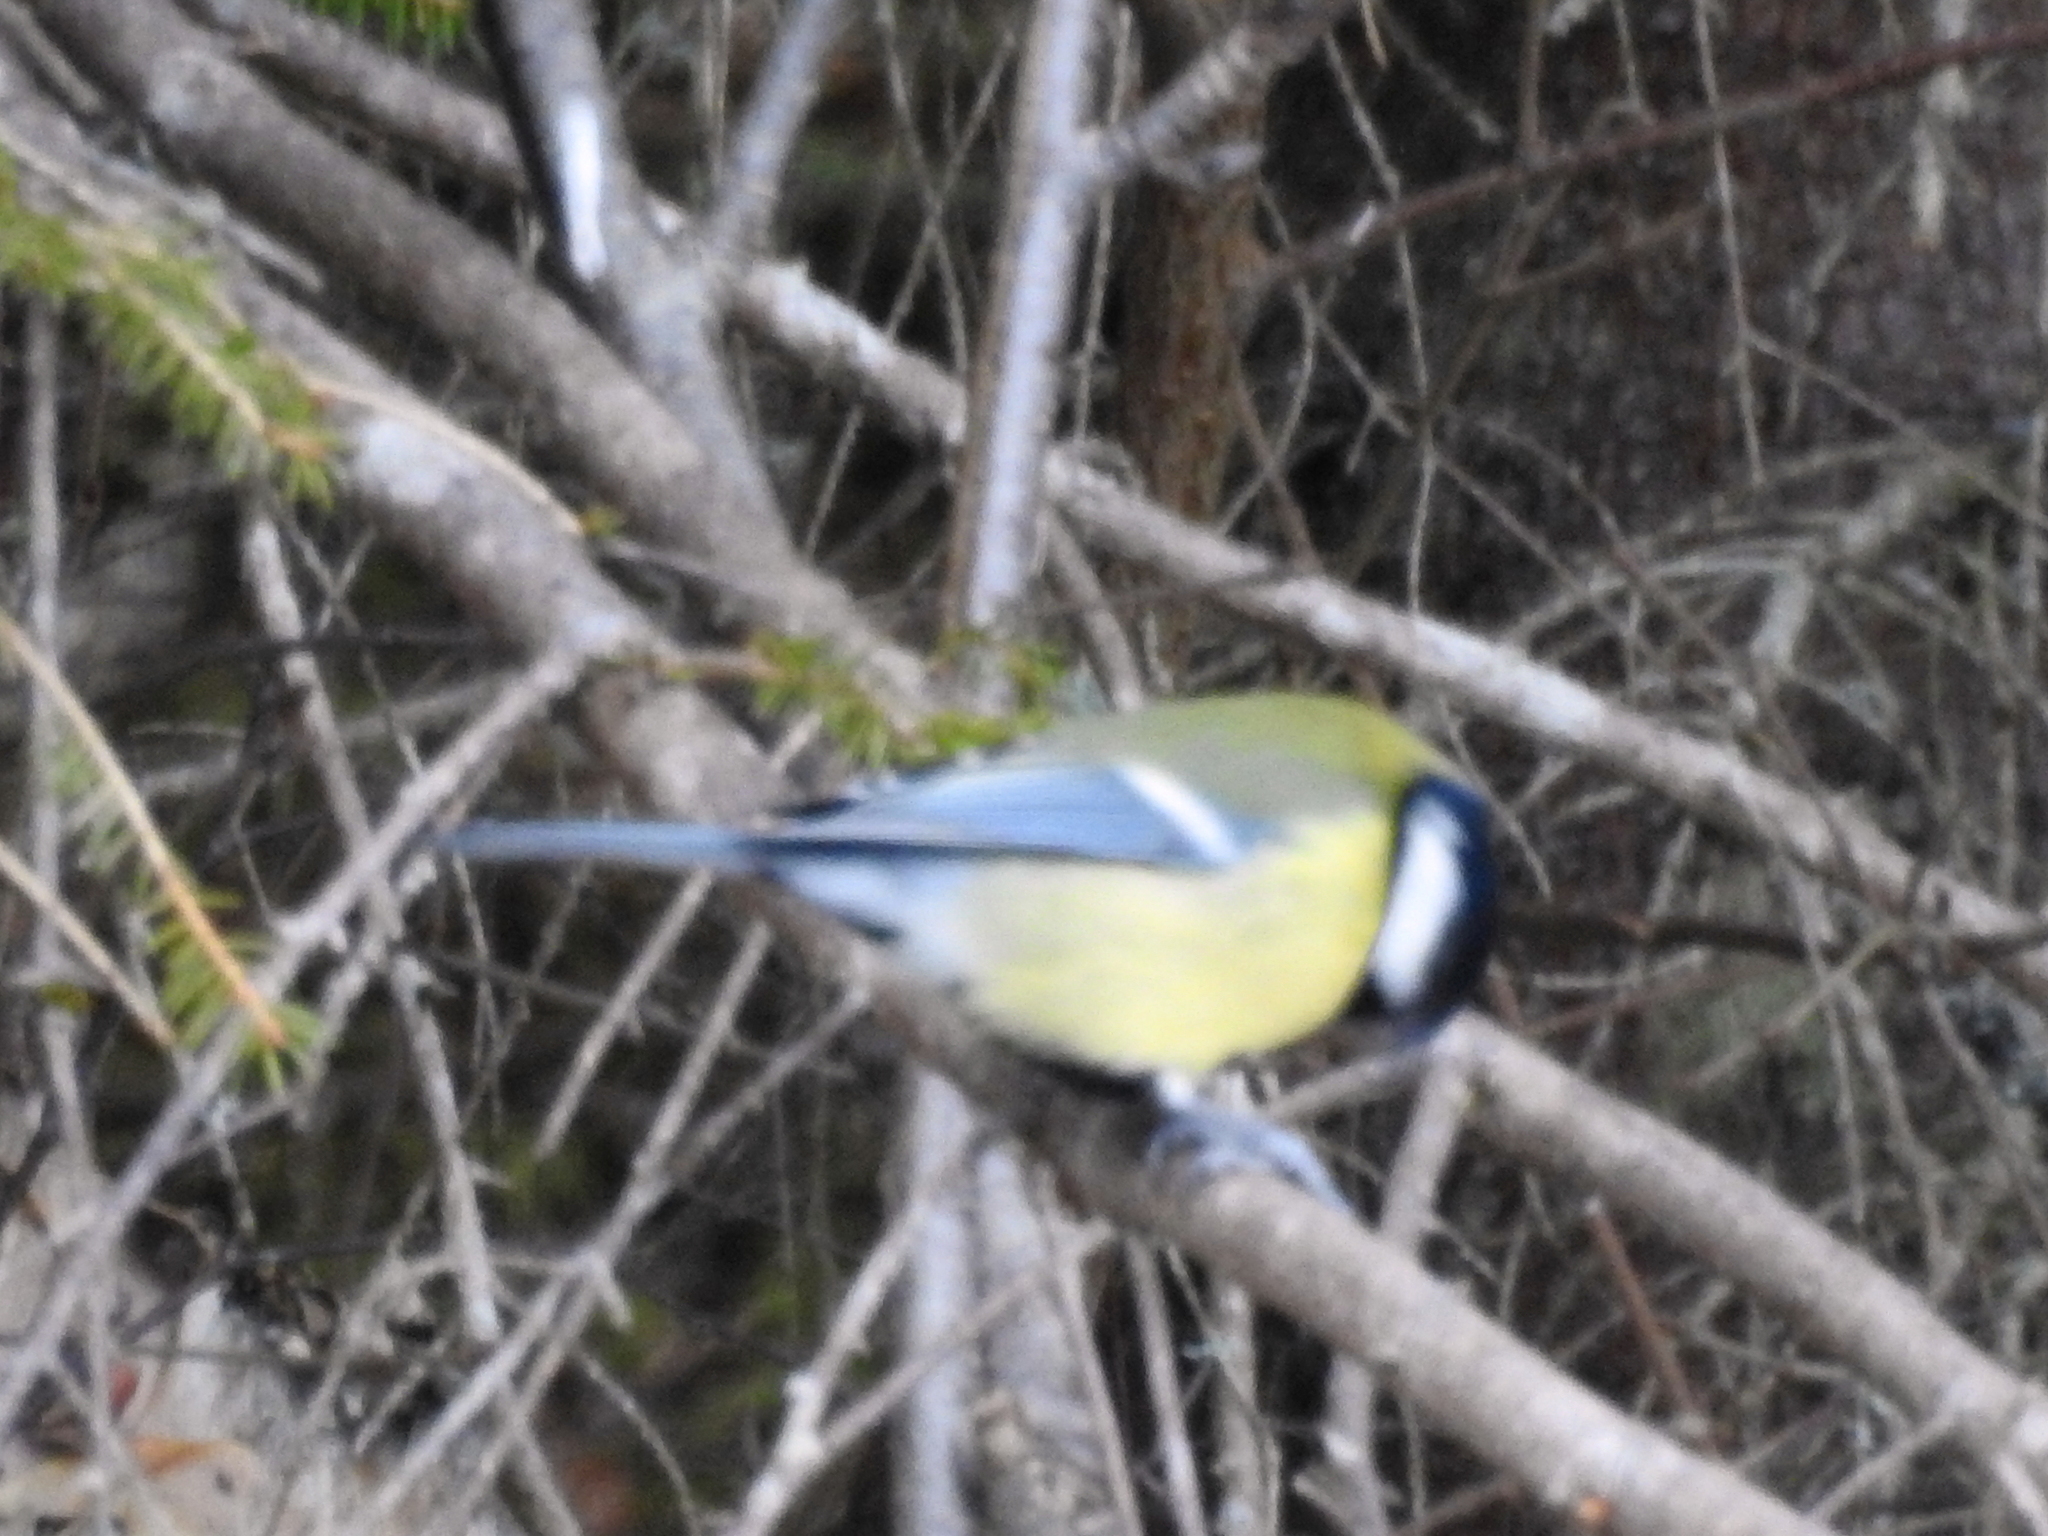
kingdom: Animalia
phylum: Chordata
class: Aves
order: Passeriformes
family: Paridae
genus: Parus
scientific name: Parus major
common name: Great tit
